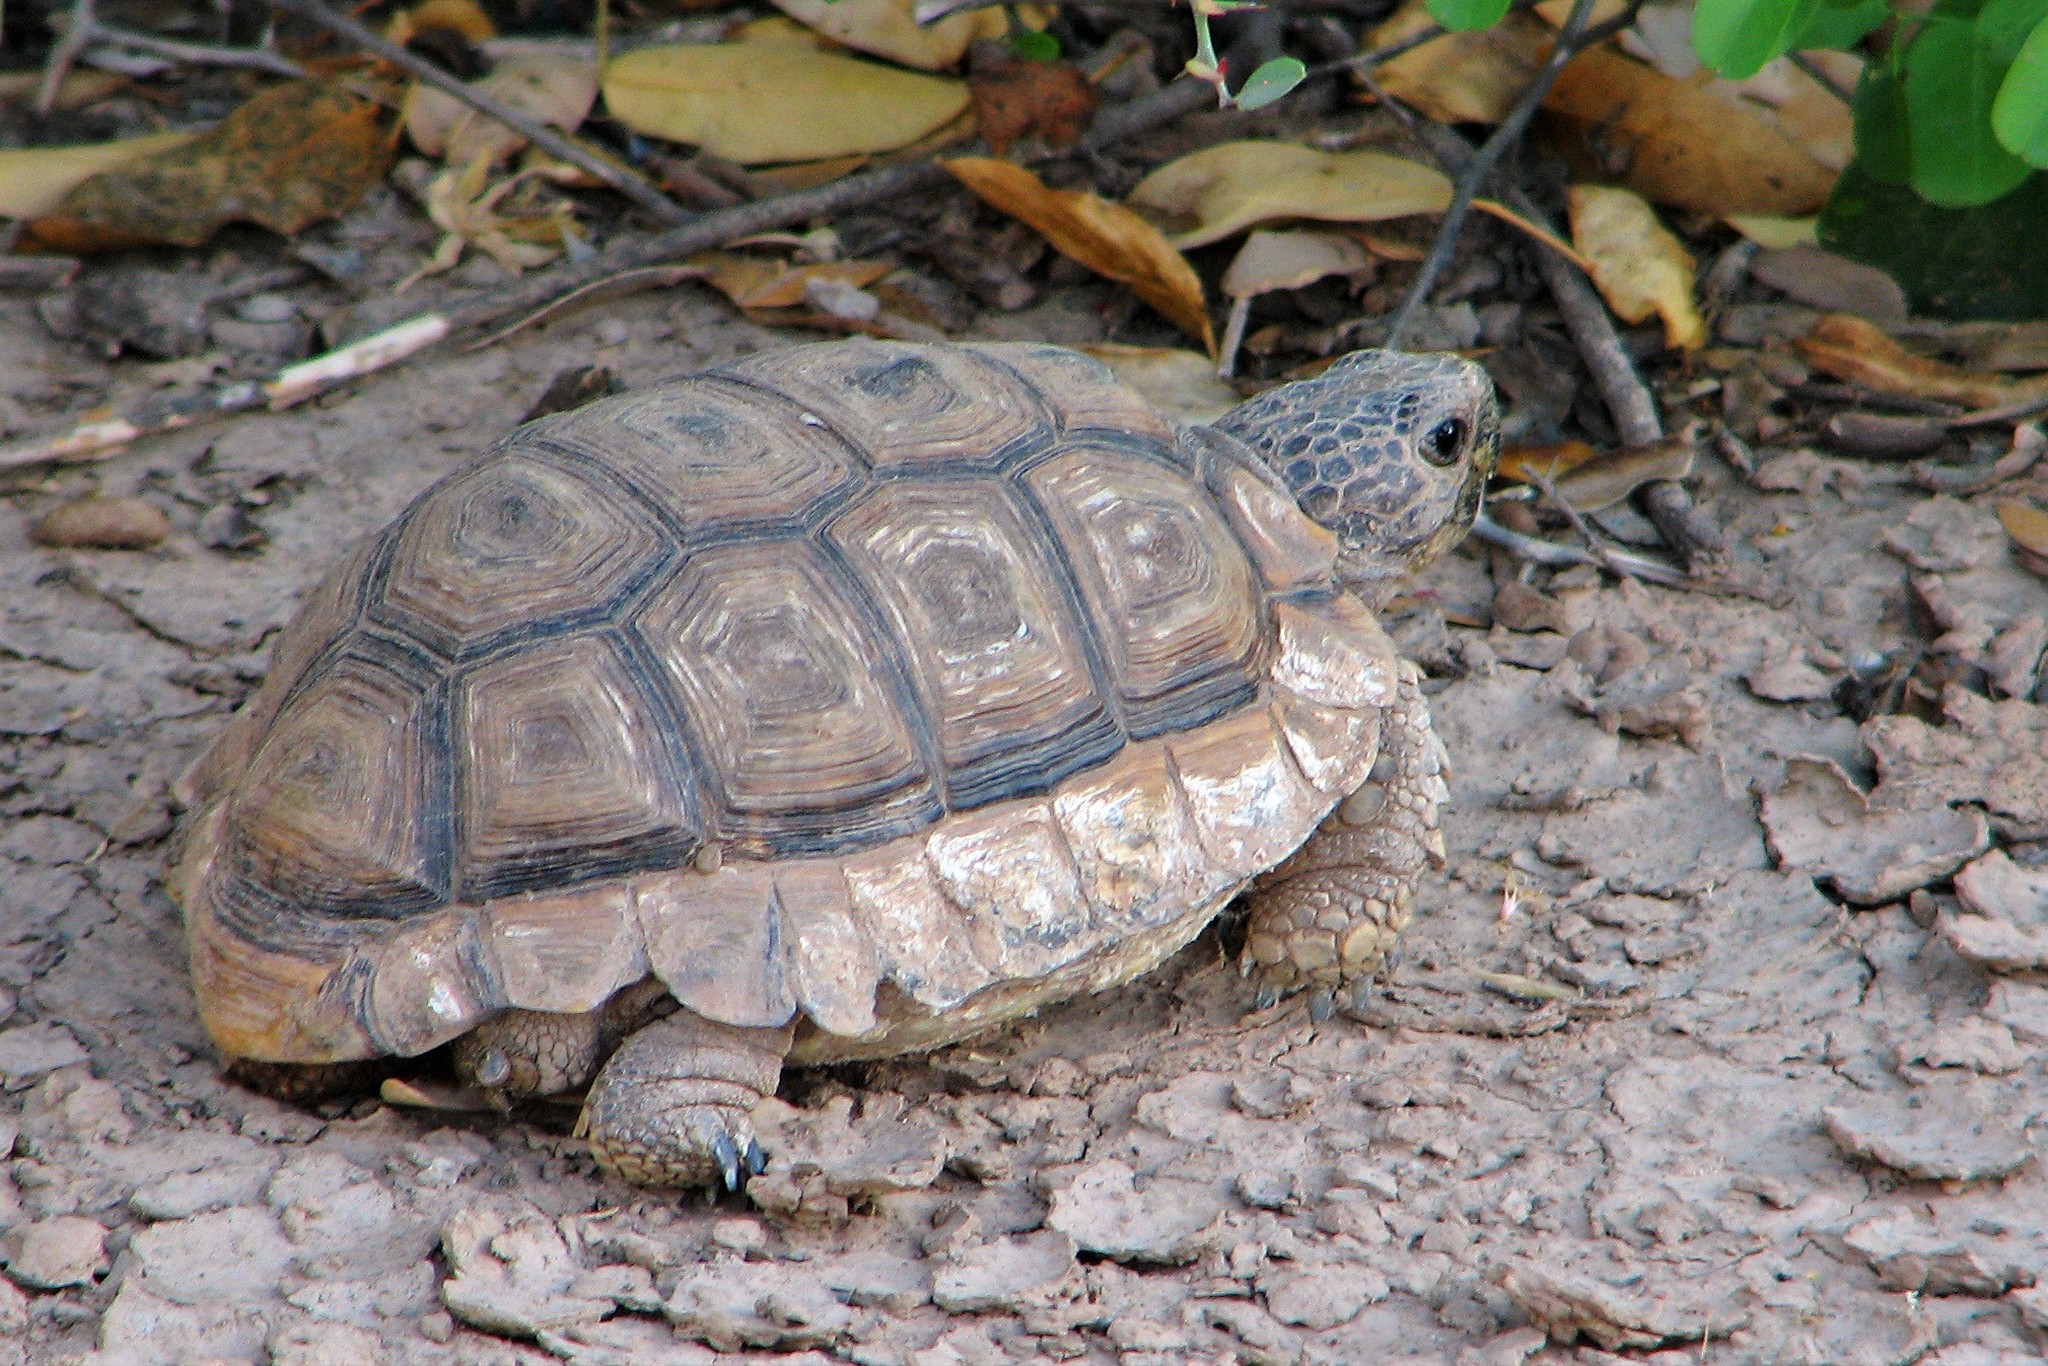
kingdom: Animalia
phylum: Chordata
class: Testudines
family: Testudinidae
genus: Chelonoidis
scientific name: Chelonoidis chilensis
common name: Chaco tortoise
